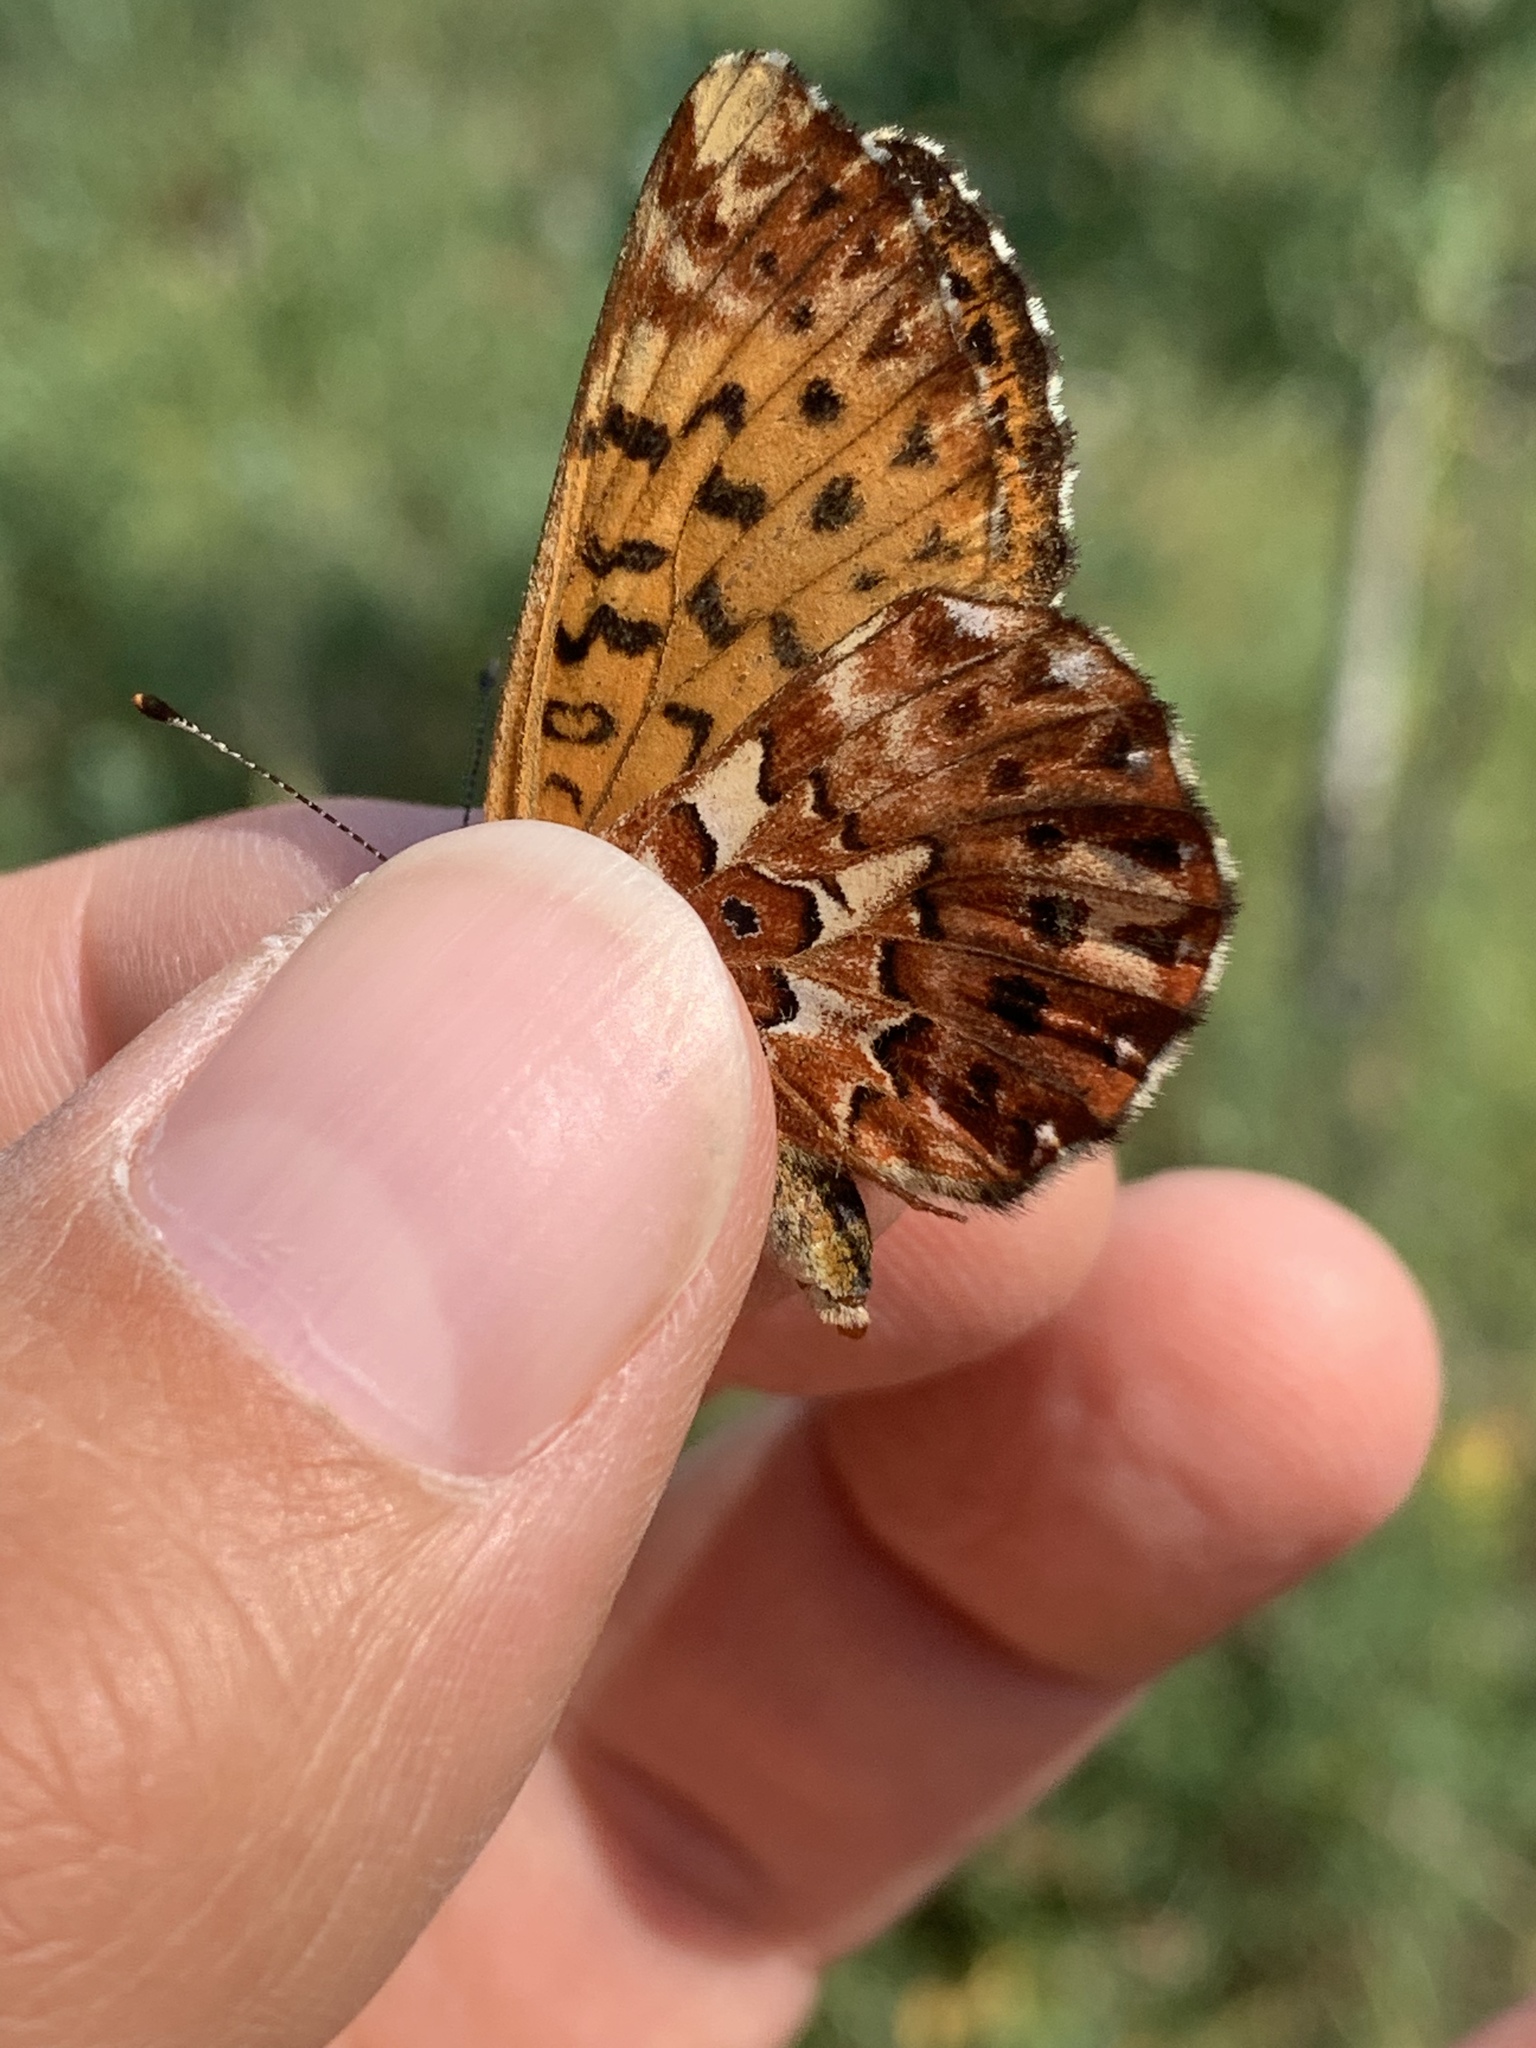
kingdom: Animalia
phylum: Arthropoda
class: Insecta
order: Lepidoptera
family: Nymphalidae
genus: Boloria
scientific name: Boloria chariclea
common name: Arctic fritillary
